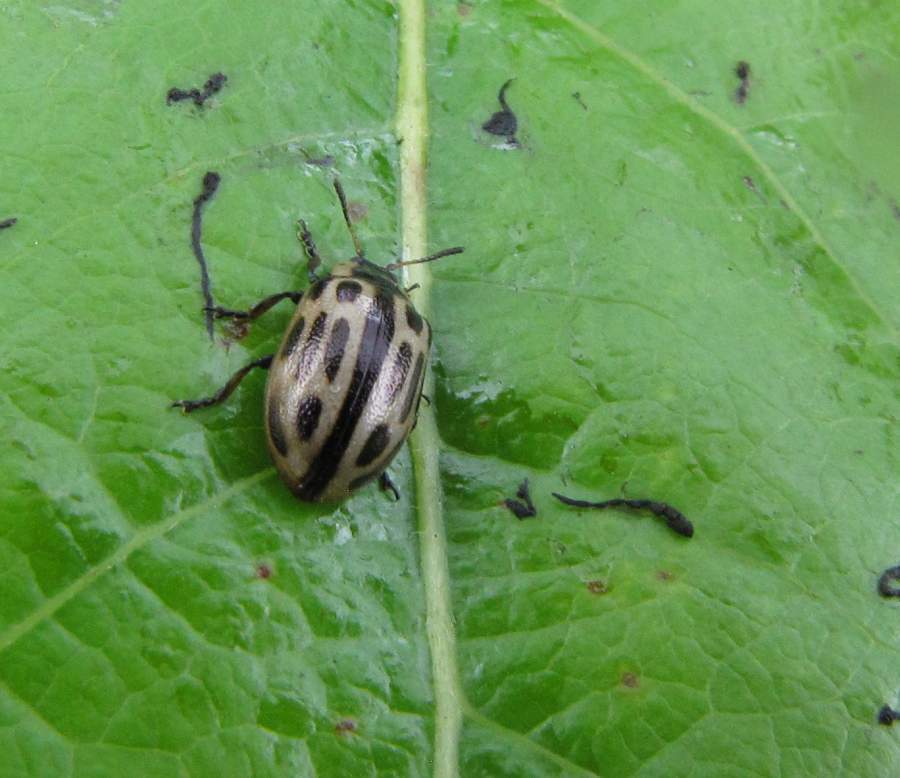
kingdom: Animalia
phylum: Arthropoda
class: Insecta
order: Coleoptera
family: Chrysomelidae
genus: Aethiopocassis
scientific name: Aethiopocassis scripta
